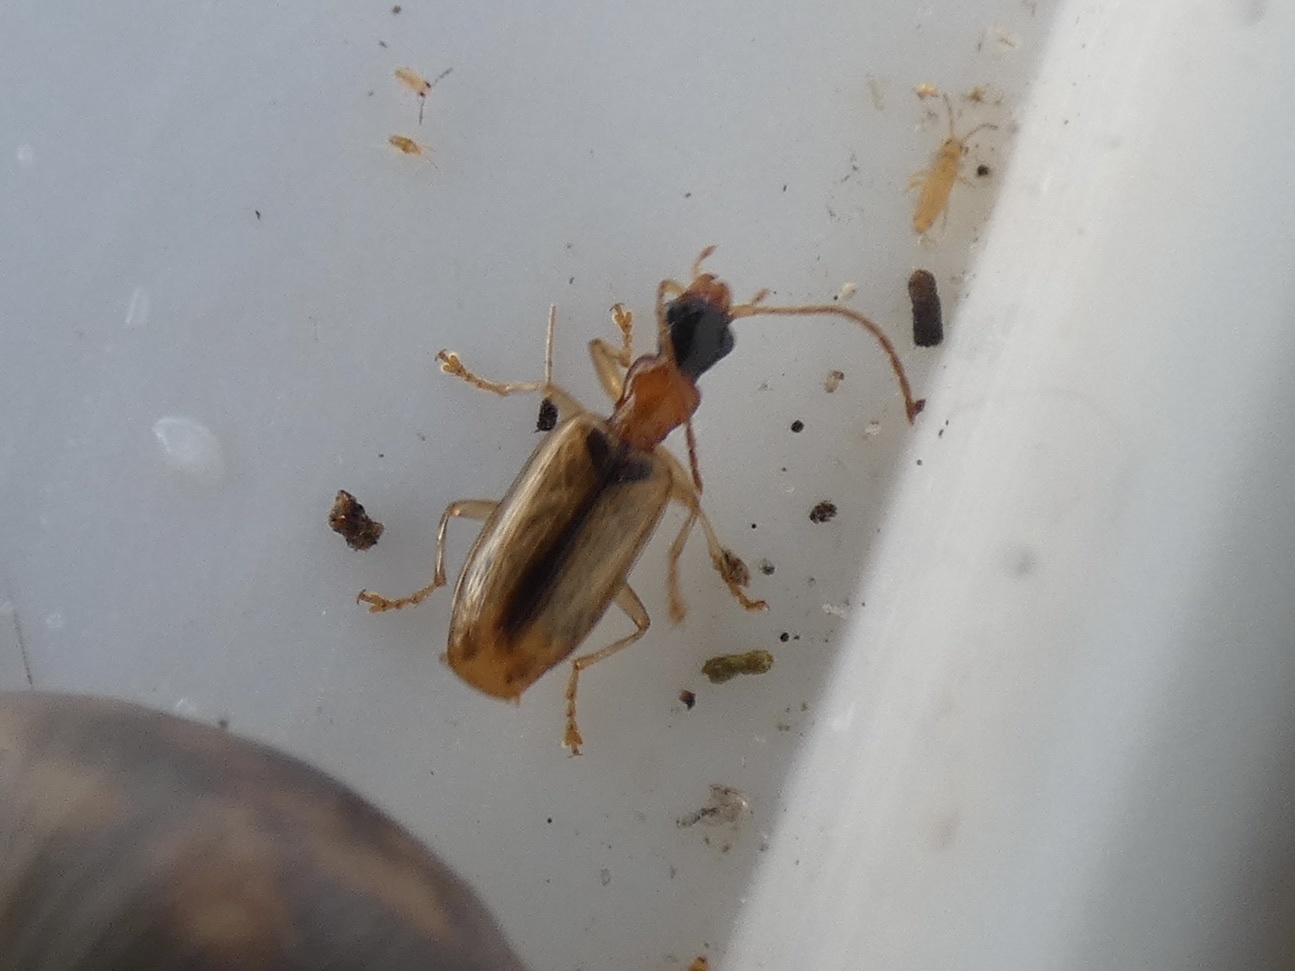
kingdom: Animalia
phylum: Arthropoda
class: Insecta
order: Coleoptera
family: Carabidae
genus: Demetrias
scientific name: Demetrias atricapillus
